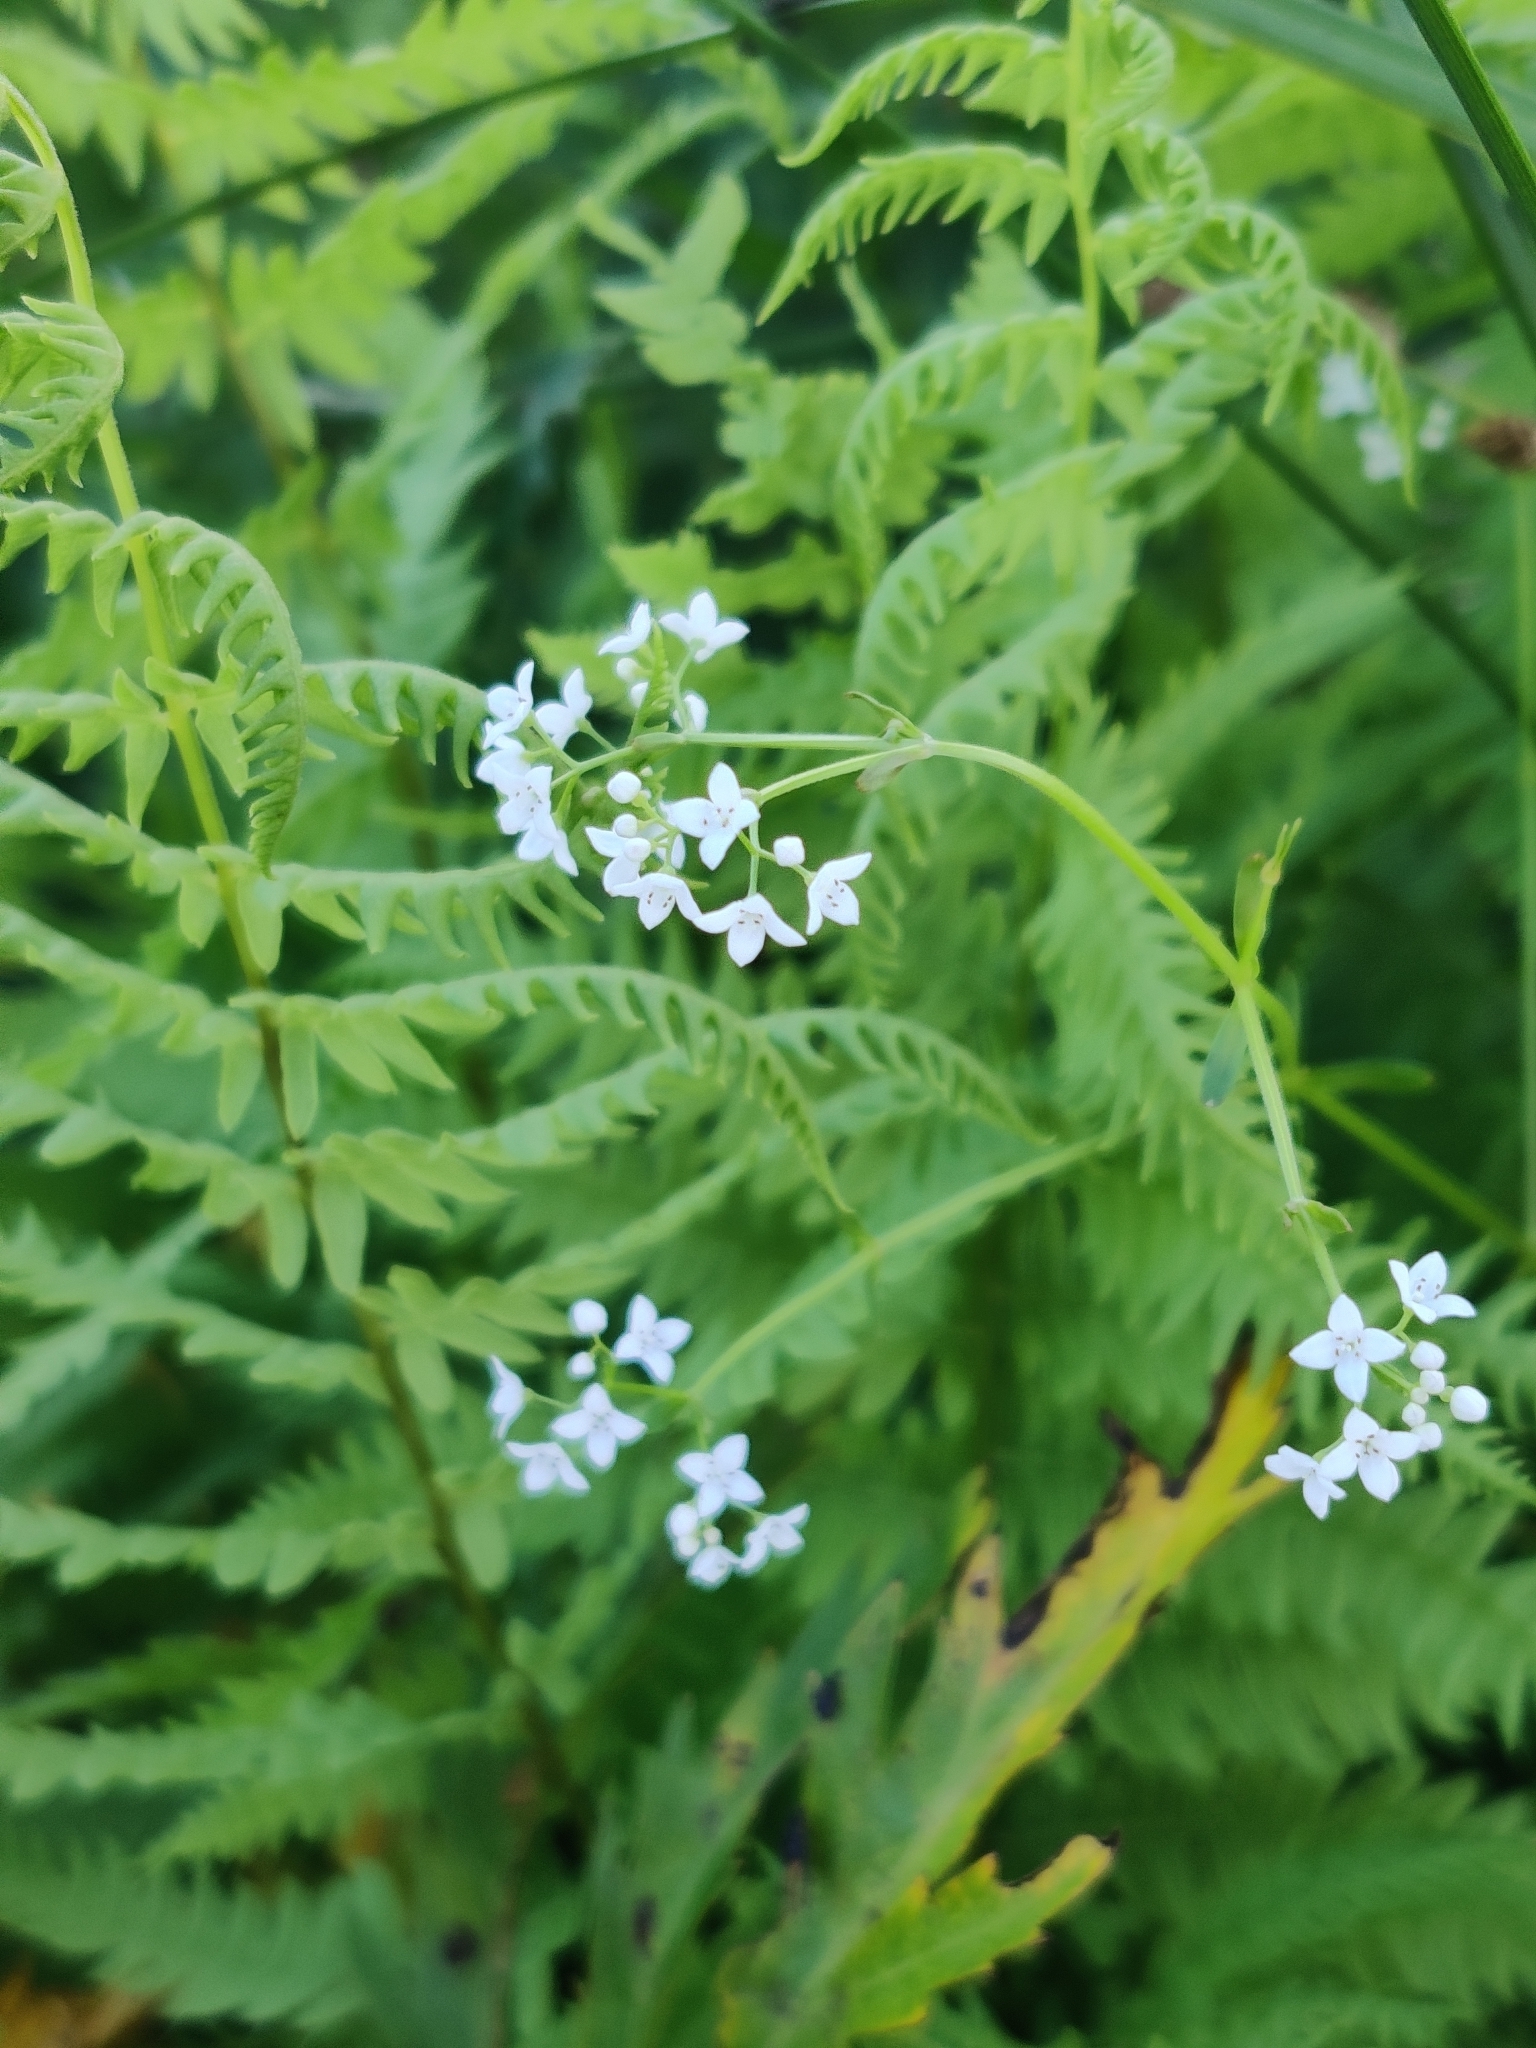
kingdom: Plantae
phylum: Tracheophyta
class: Magnoliopsida
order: Gentianales
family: Rubiaceae
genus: Galium
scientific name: Galium palustre
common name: Common marsh-bedstraw
